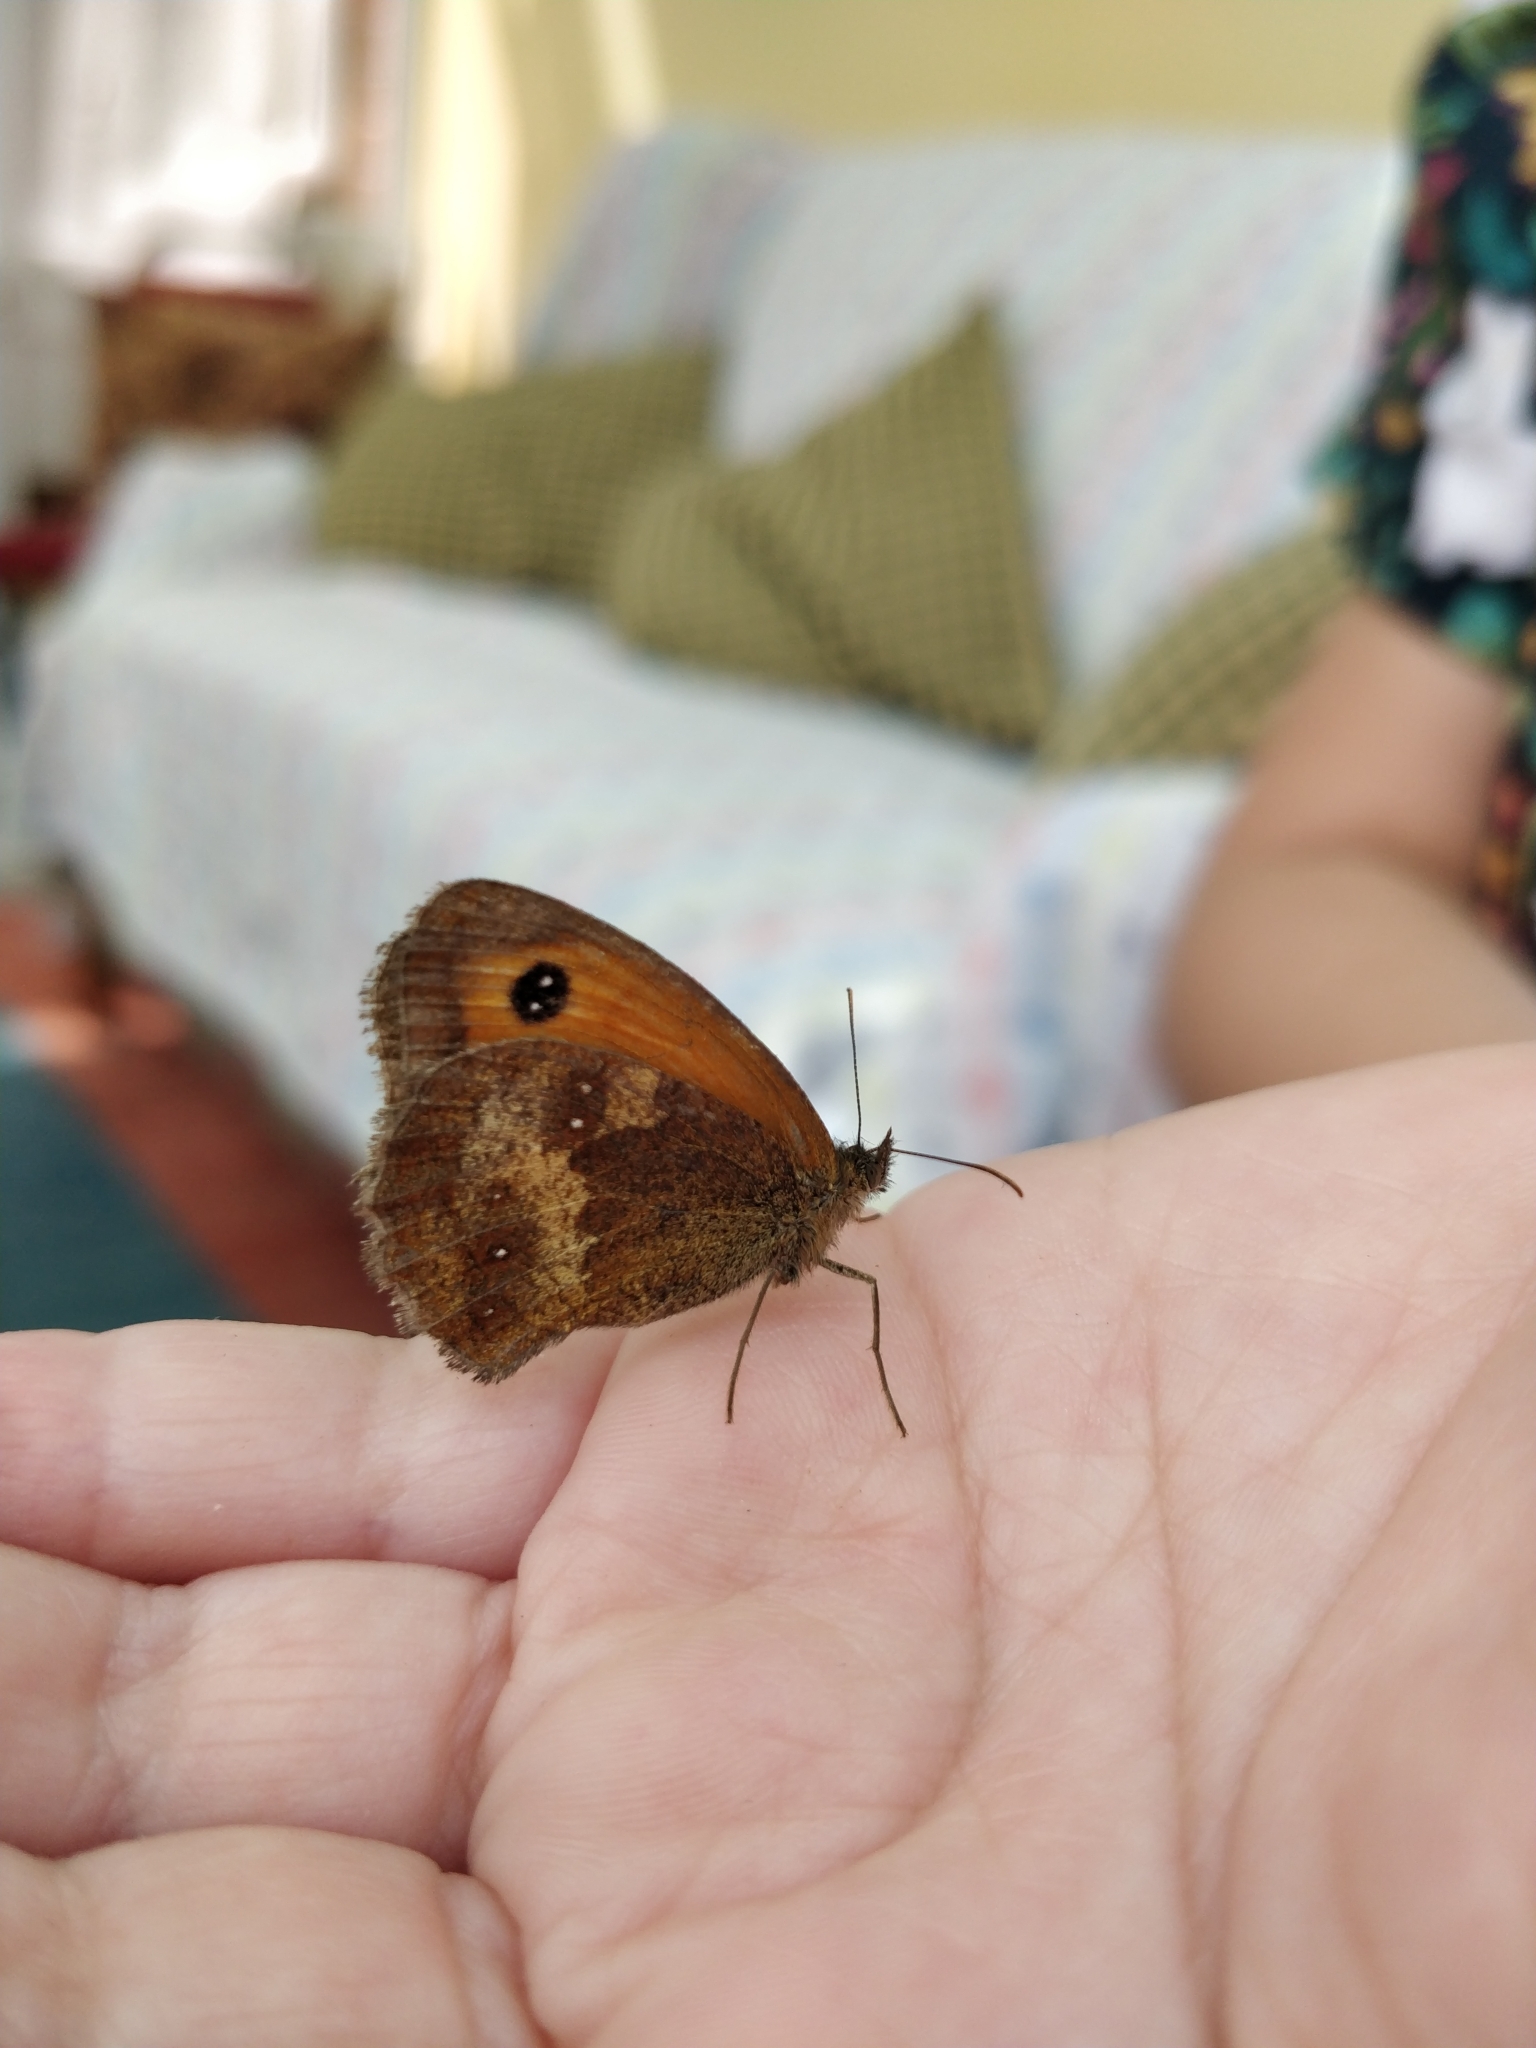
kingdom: Animalia
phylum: Arthropoda
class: Insecta
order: Lepidoptera
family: Nymphalidae
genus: Pyronia
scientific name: Pyronia tithonus
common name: Gatekeeper
